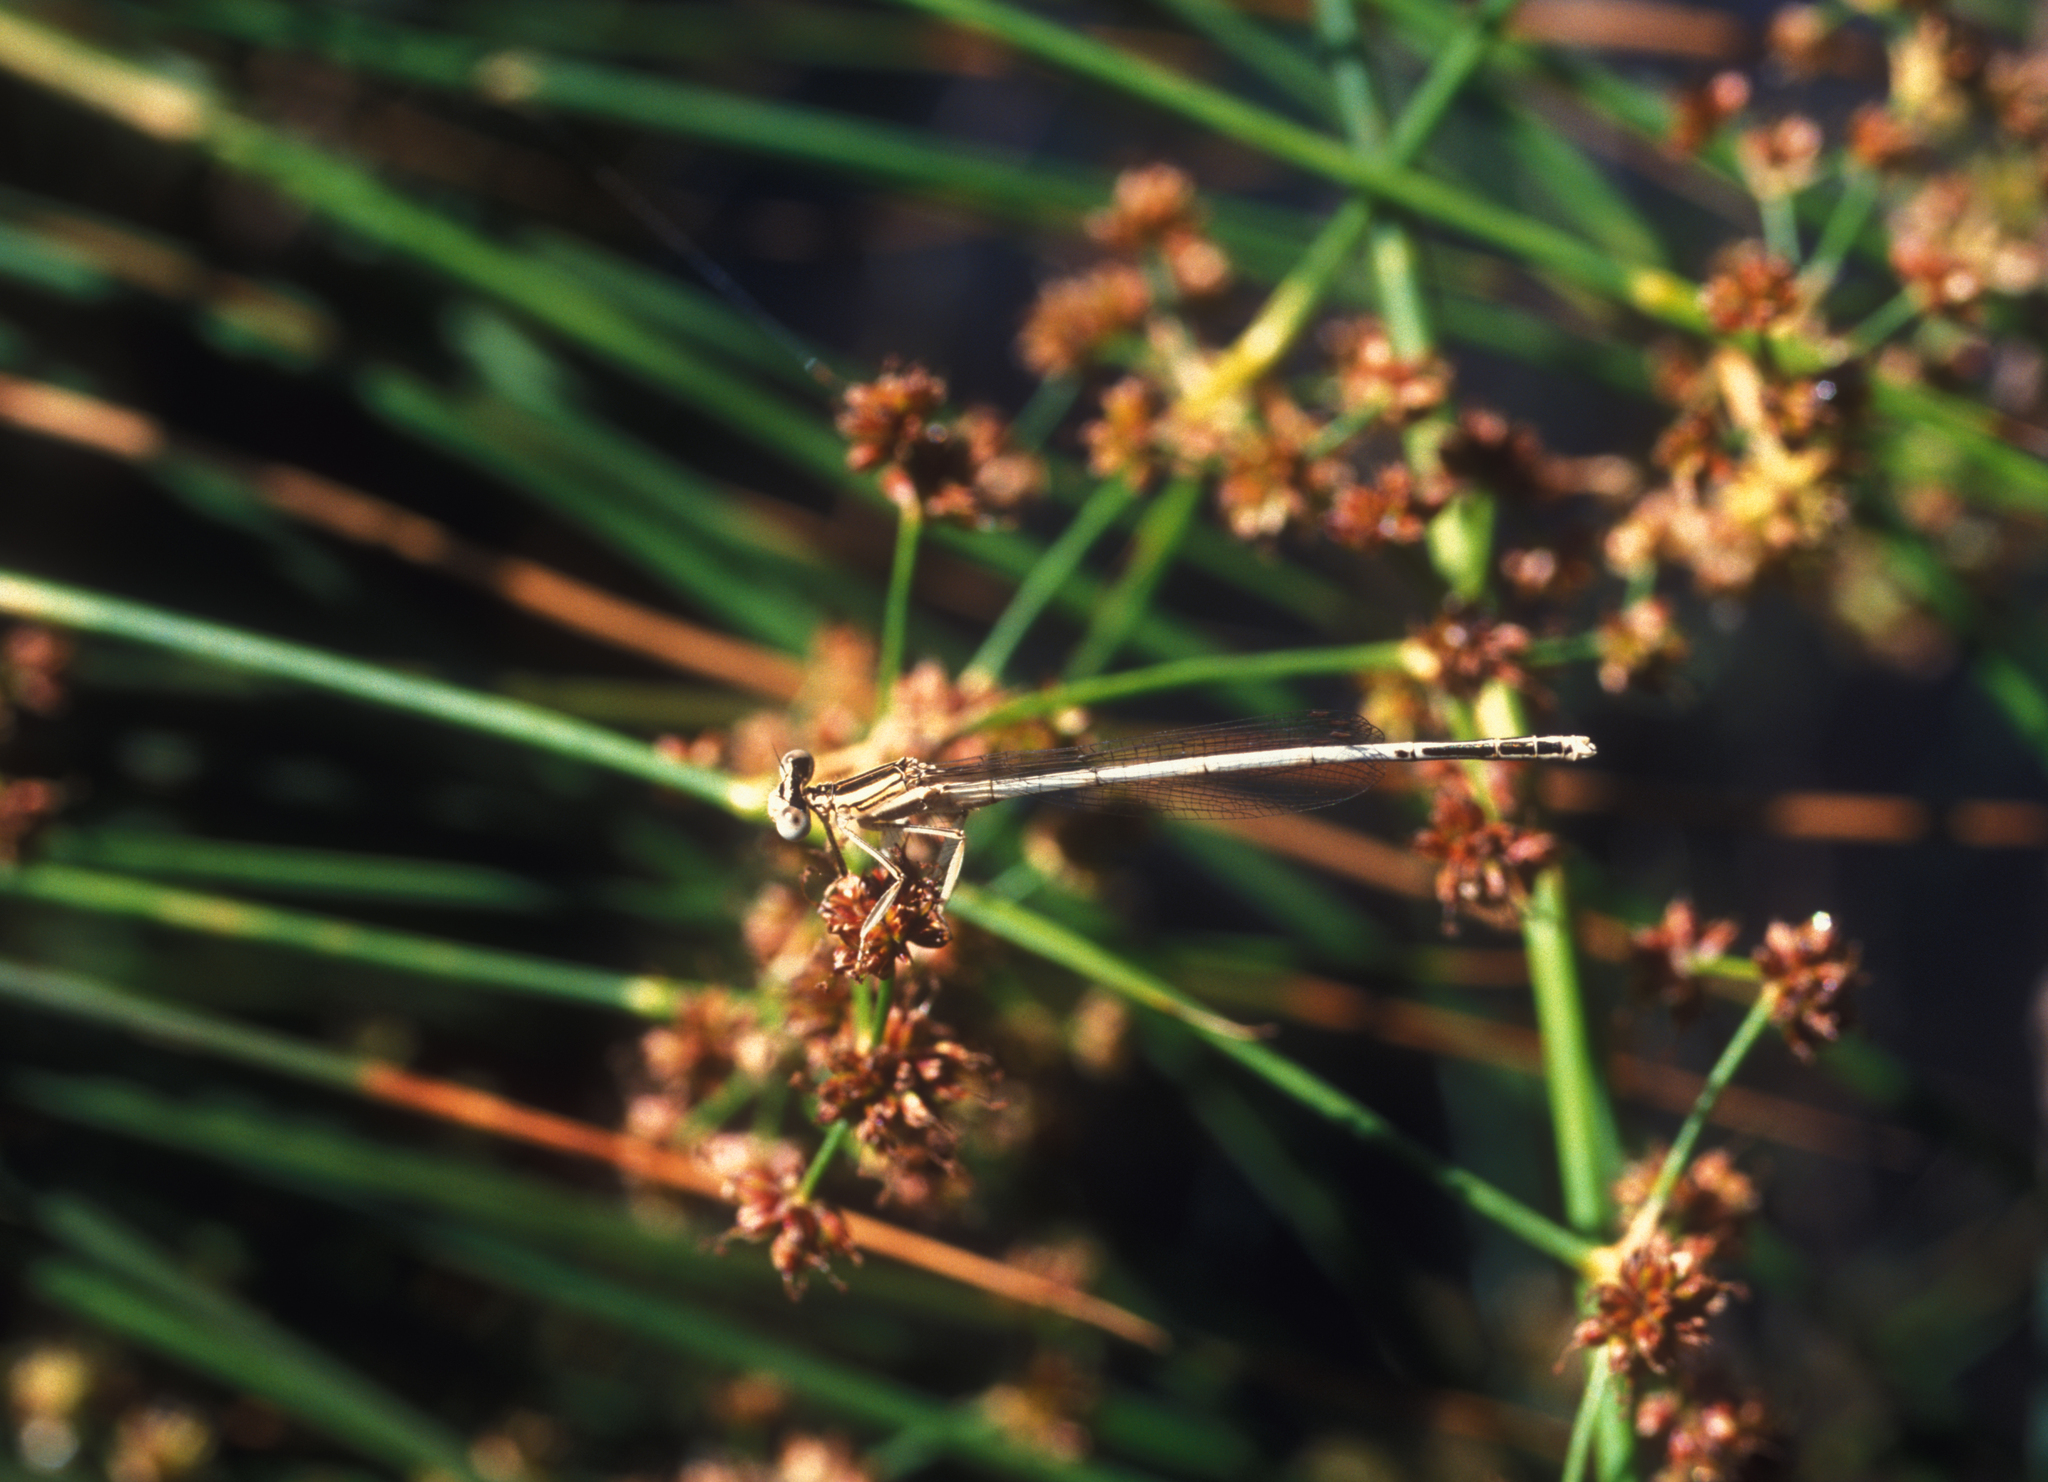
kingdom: Animalia
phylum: Arthropoda
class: Insecta
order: Odonata
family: Platycnemididae
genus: Platycnemis
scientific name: Platycnemis latipes
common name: White featherleg
